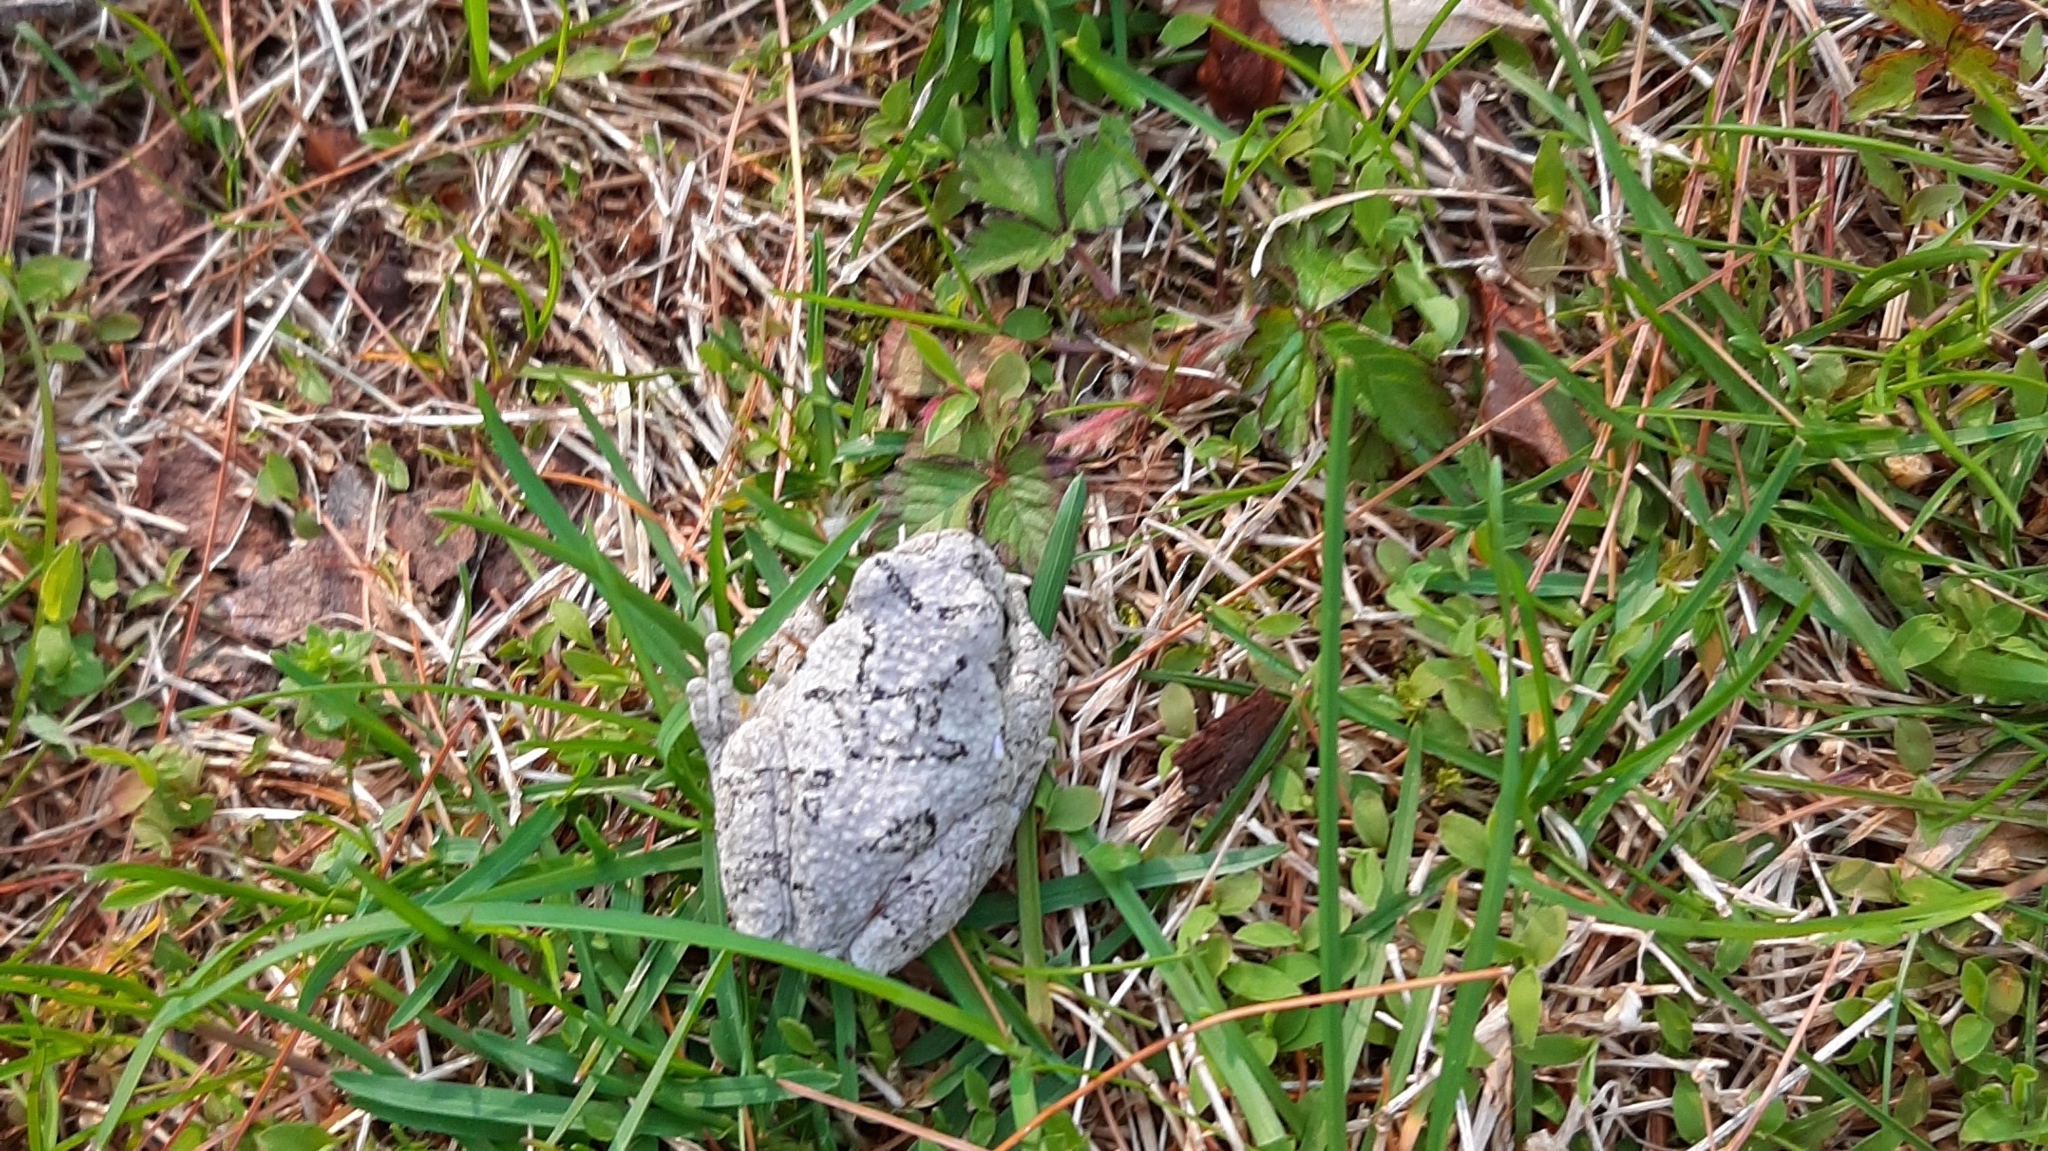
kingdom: Animalia
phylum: Chordata
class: Amphibia
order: Anura
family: Hylidae
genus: Dryophytes
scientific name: Dryophytes versicolor
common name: Gray treefrog
